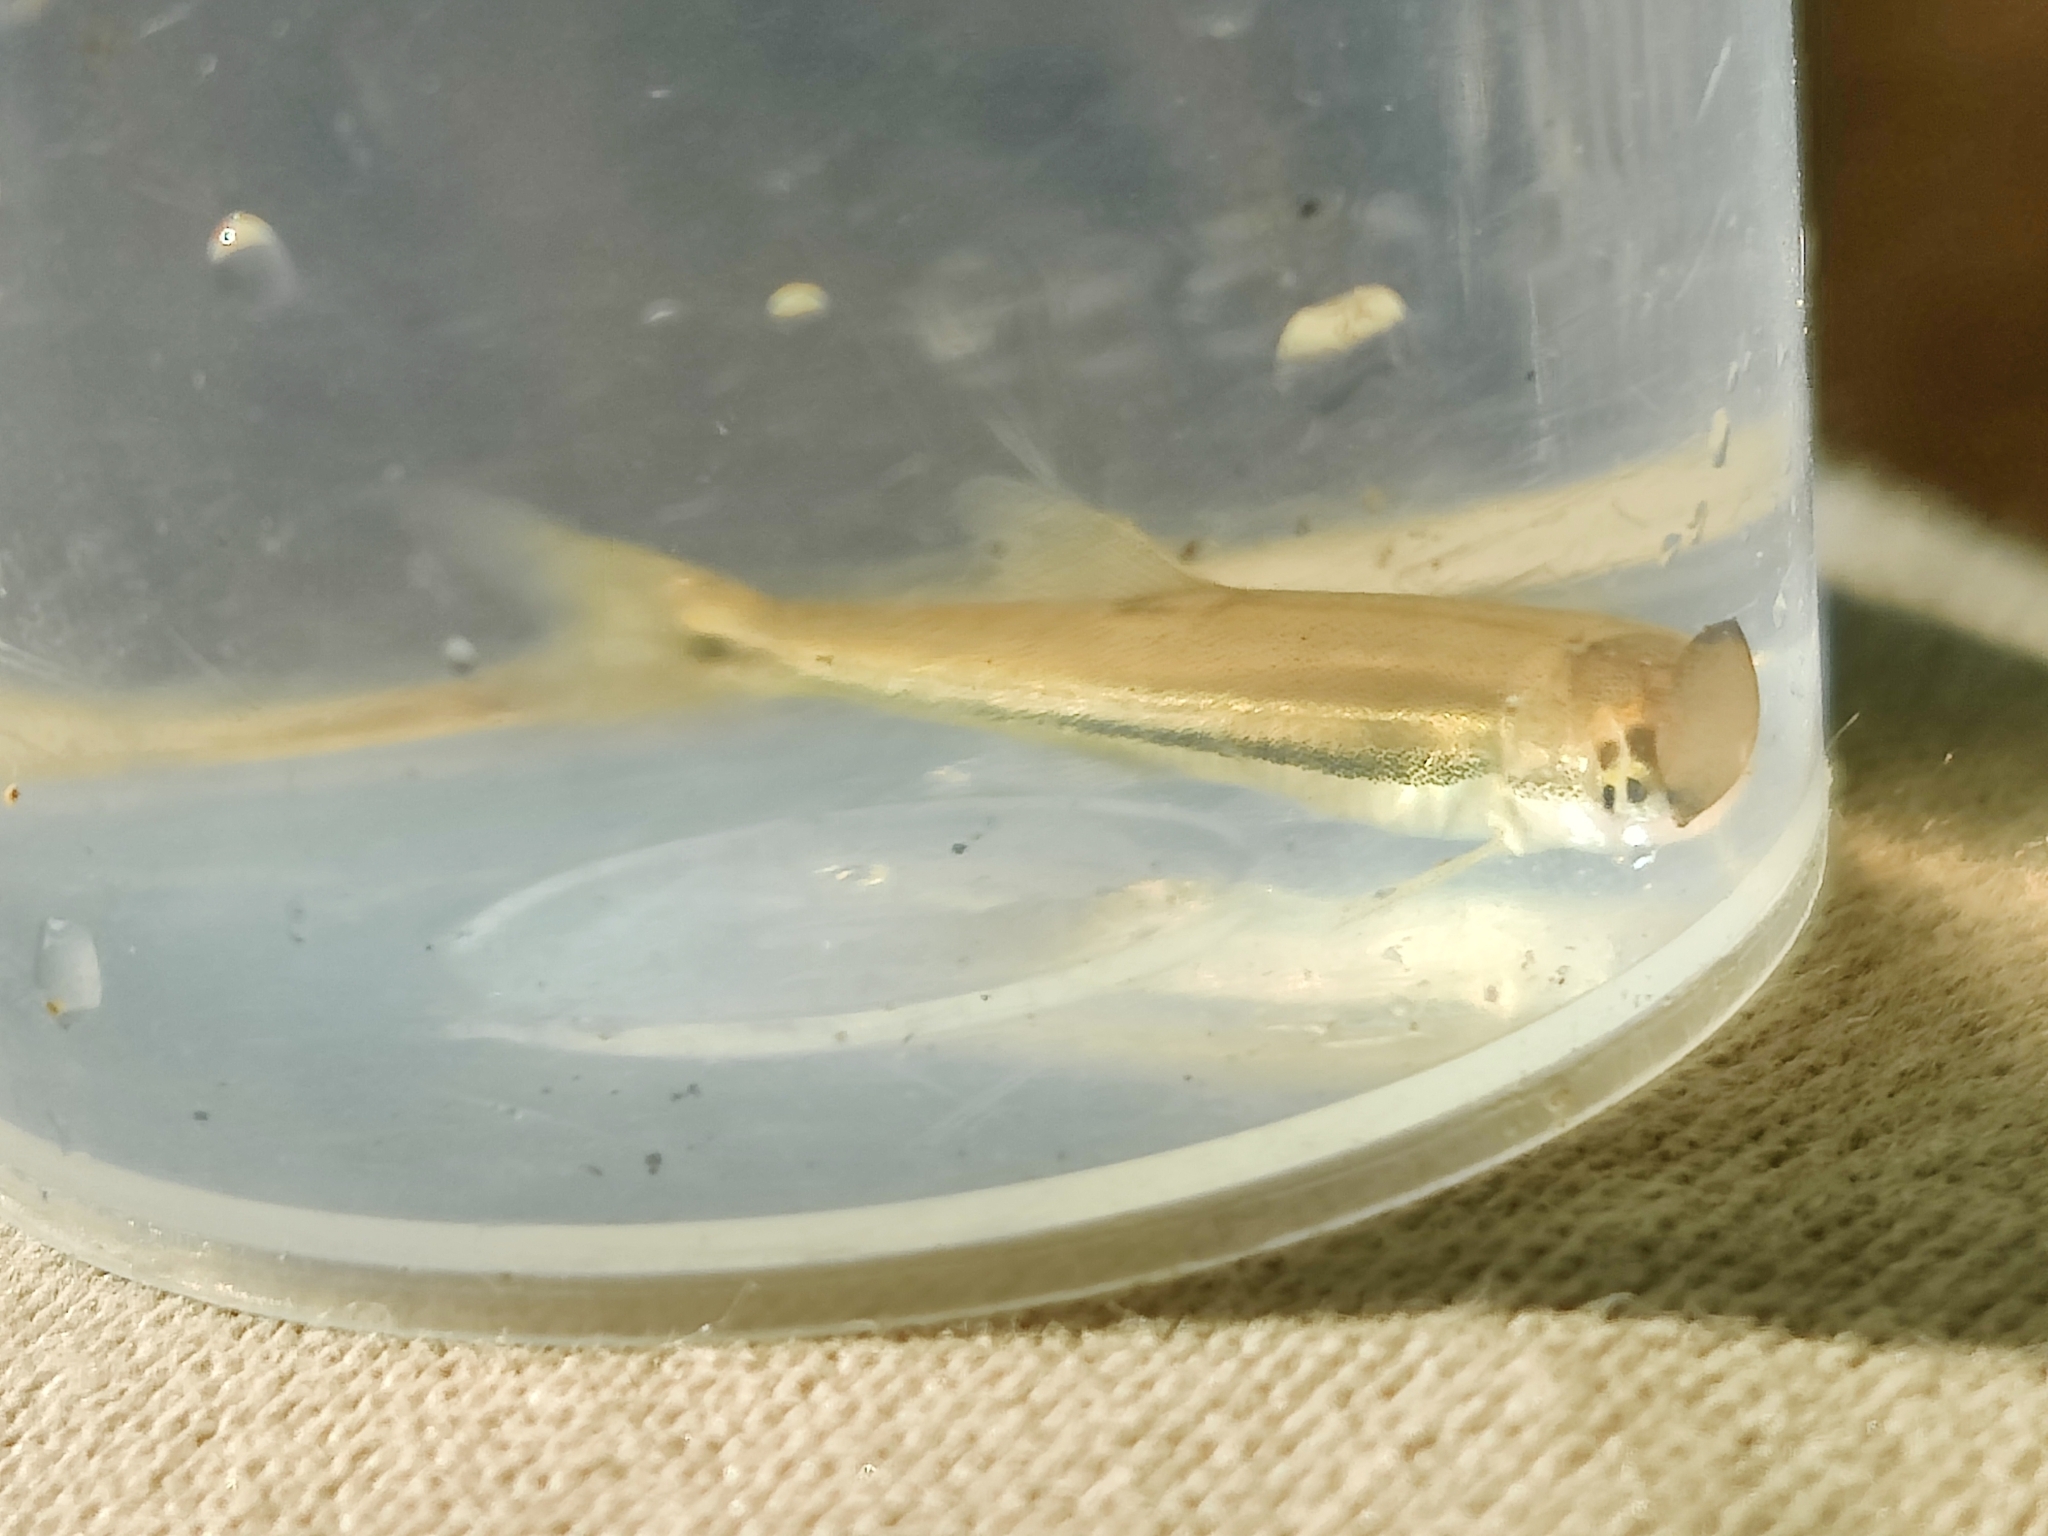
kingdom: Animalia
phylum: Chordata
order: Cypriniformes
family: Cyprinidae
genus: Phoxinus
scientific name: Phoxinus phoxinus
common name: Minnow
